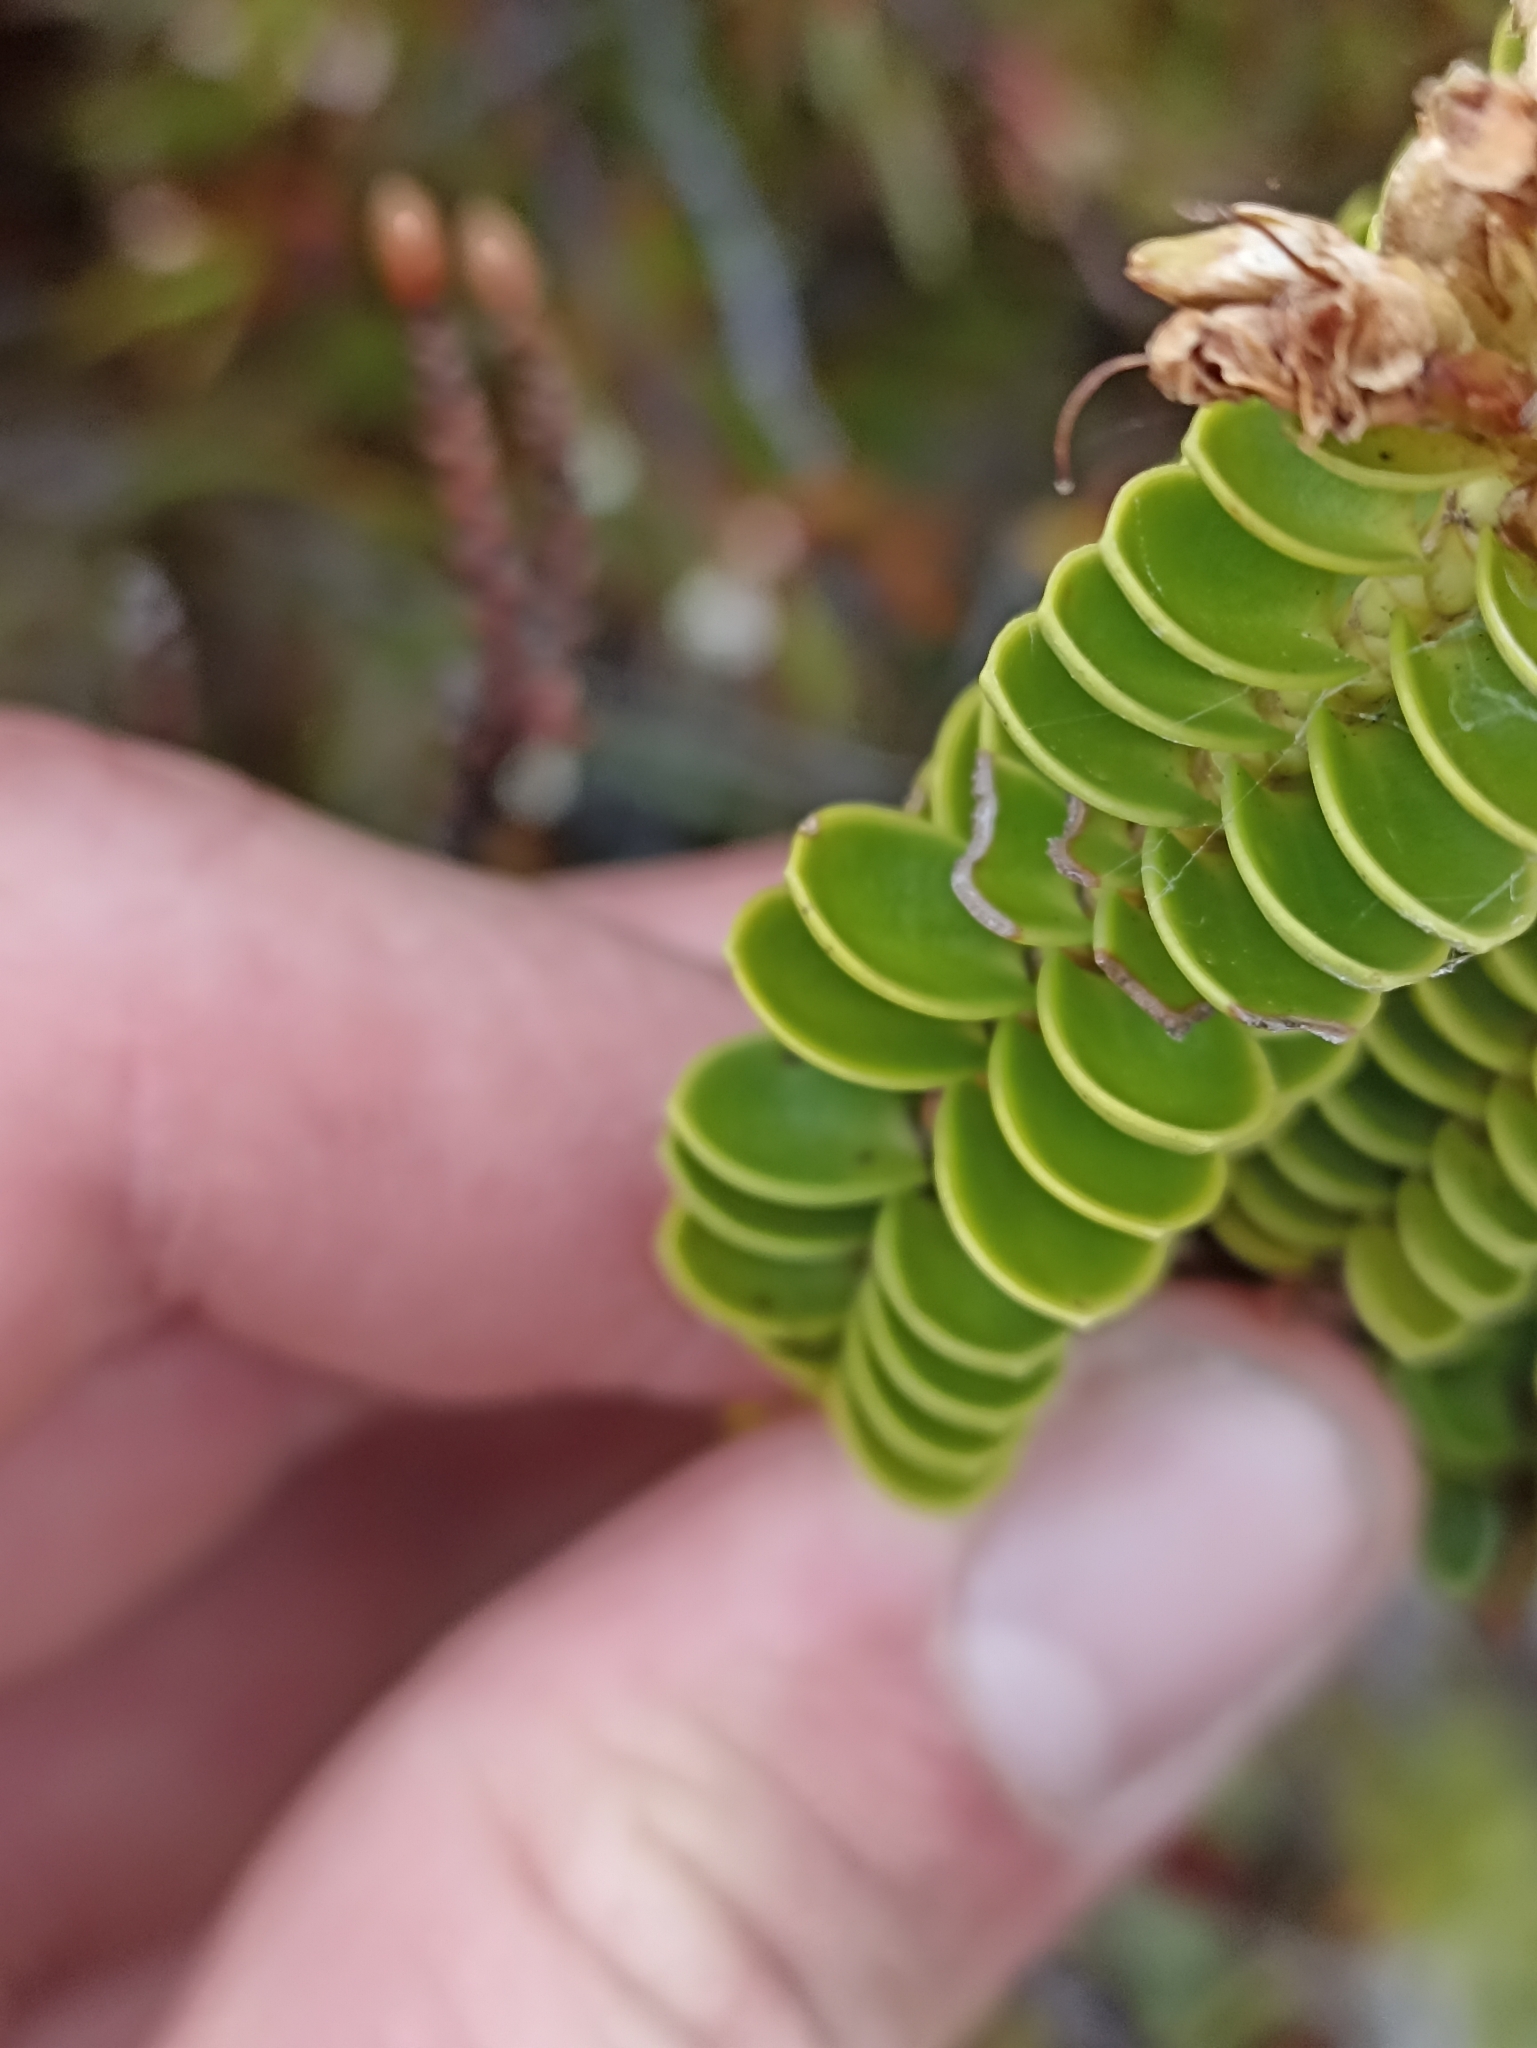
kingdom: Plantae
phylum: Tracheophyta
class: Magnoliopsida
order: Lamiales
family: Plantaginaceae
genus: Veronica
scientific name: Veronica odora
